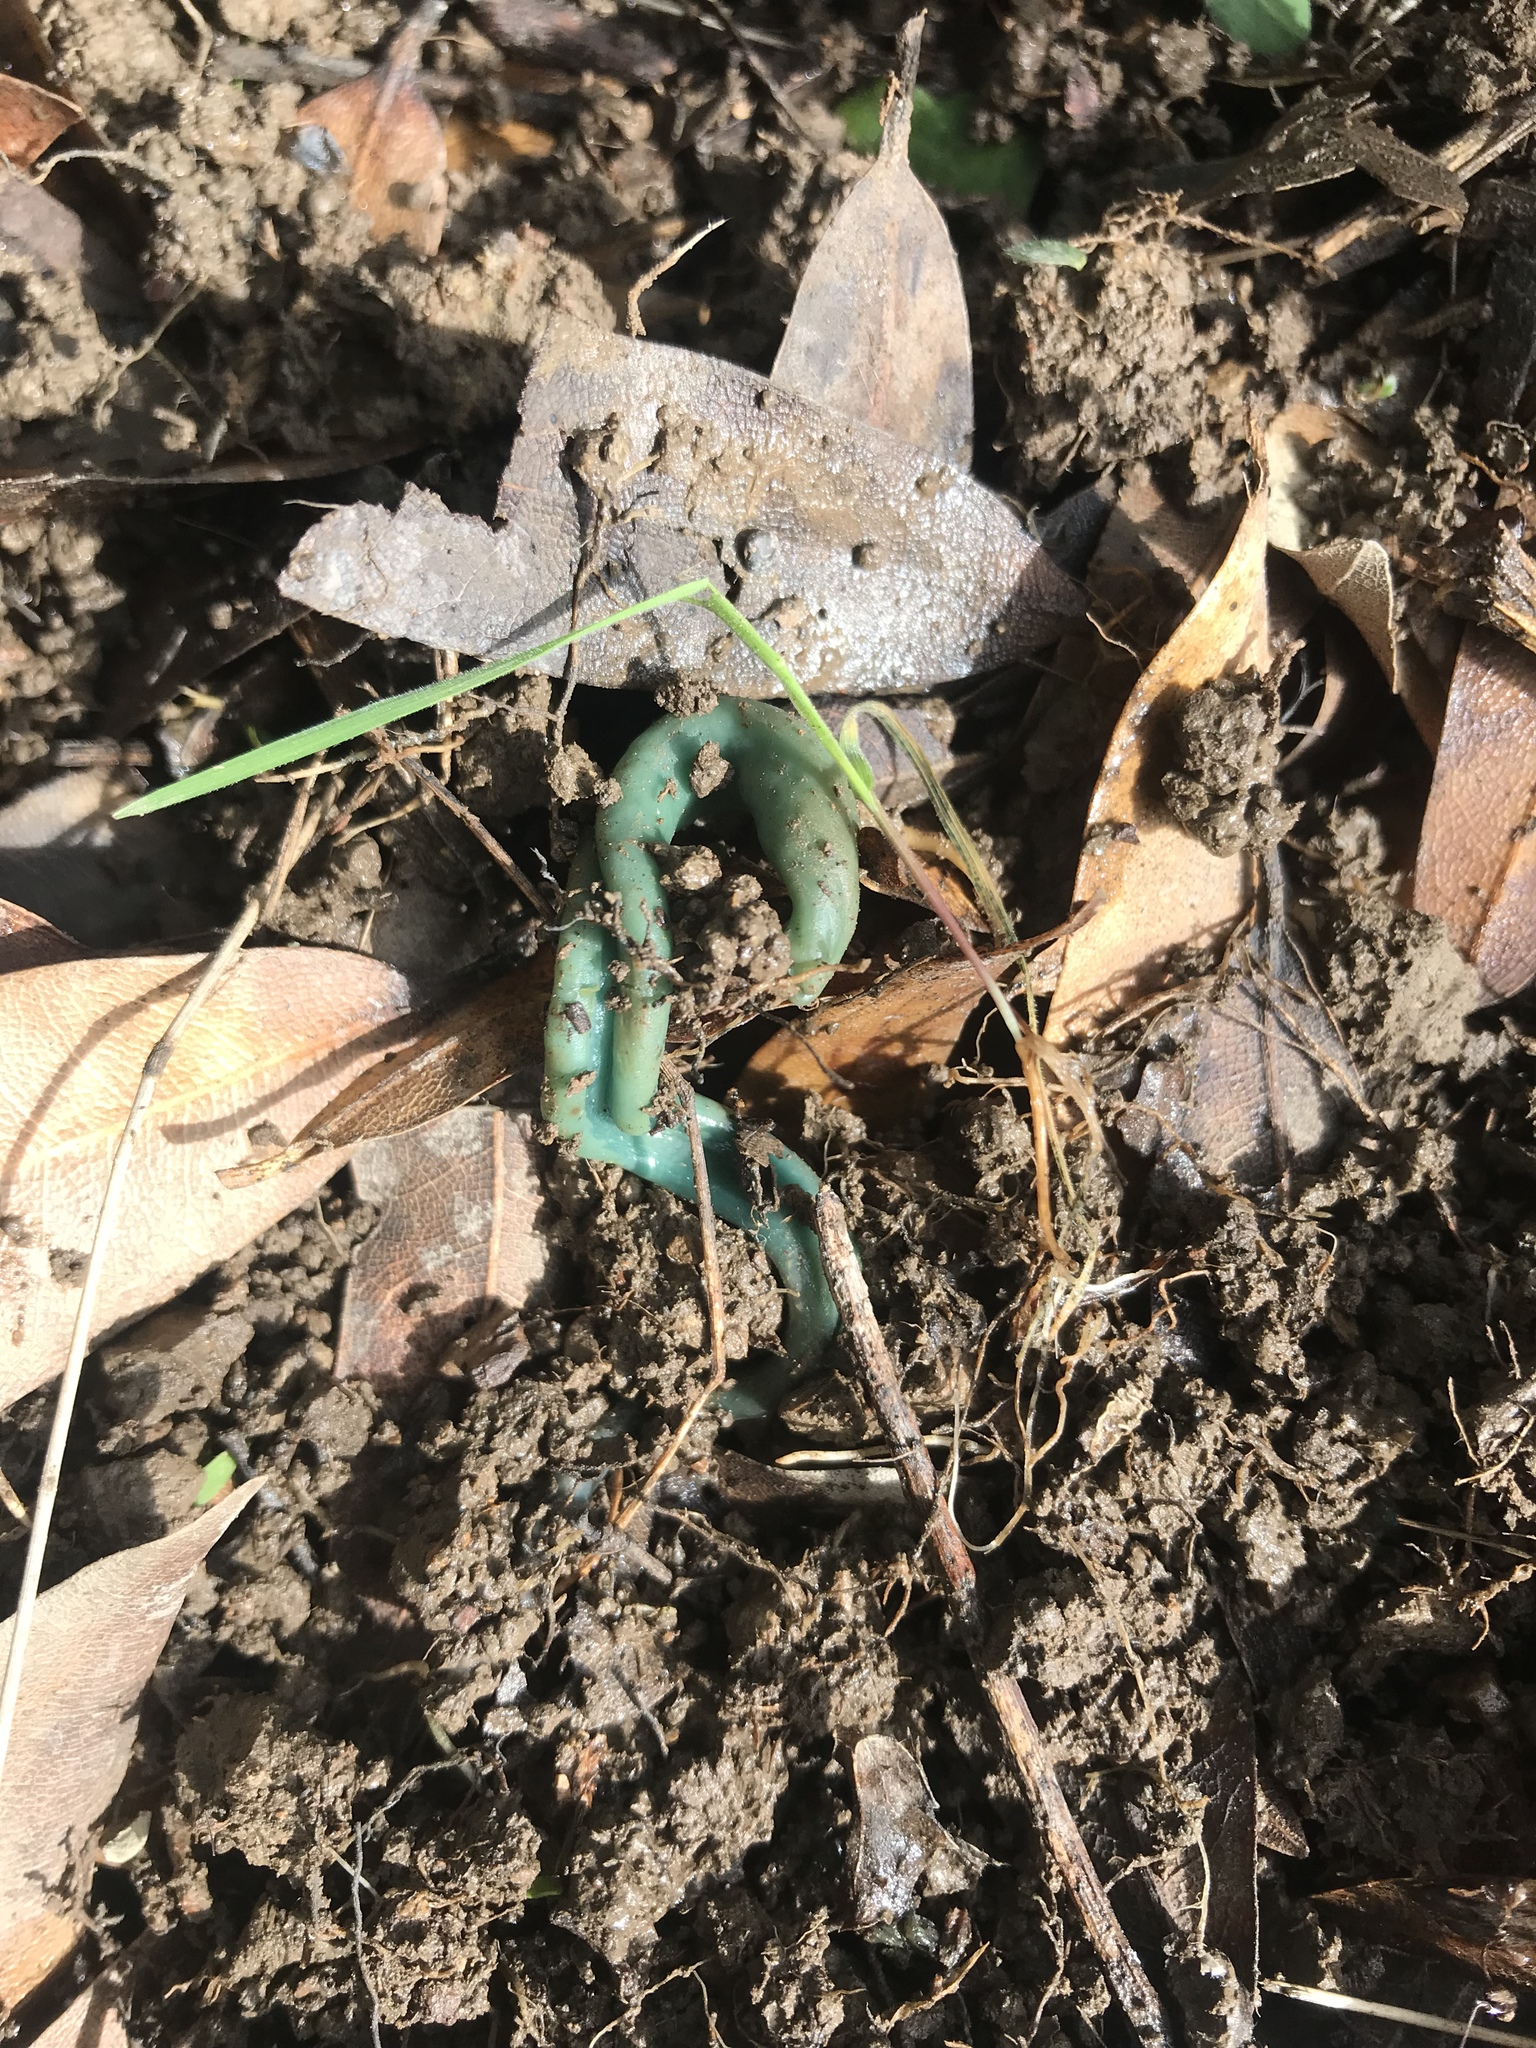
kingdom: Fungi
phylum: Ascomycota
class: Leotiomycetes
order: Leotiales
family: Leotiaceae
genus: Microglossum
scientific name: Microglossum viride
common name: Green earthtongue
